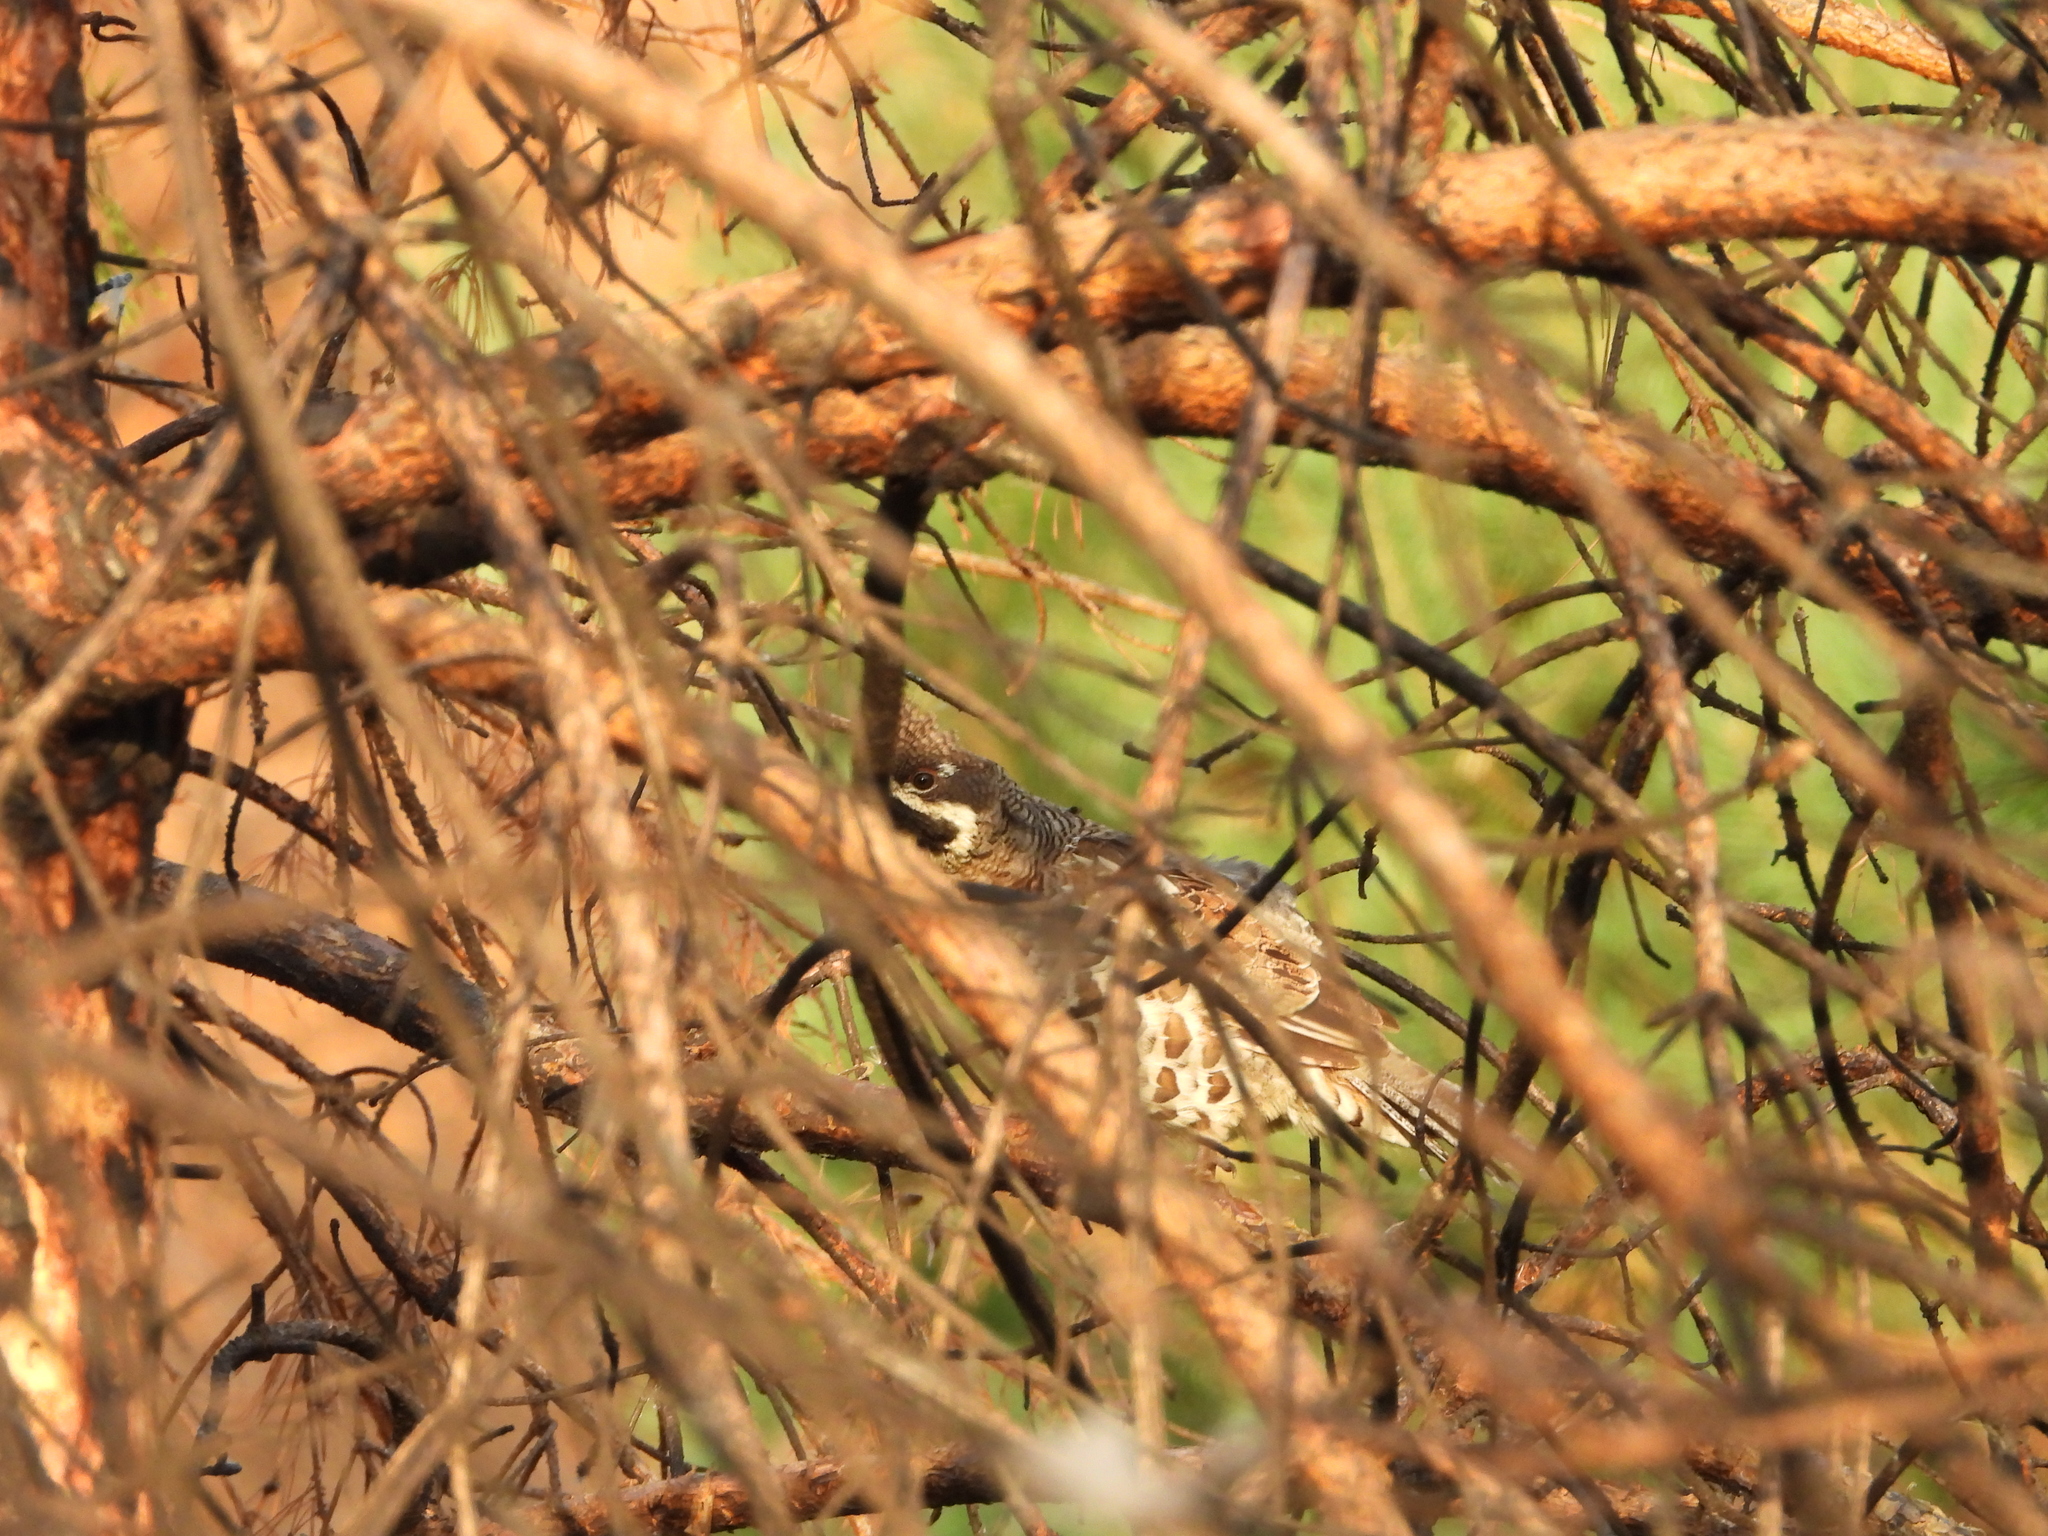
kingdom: Animalia
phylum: Chordata
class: Aves
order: Galliformes
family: Phasianidae
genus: Tetrastes
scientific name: Tetrastes bonasia
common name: Hazel grouse
